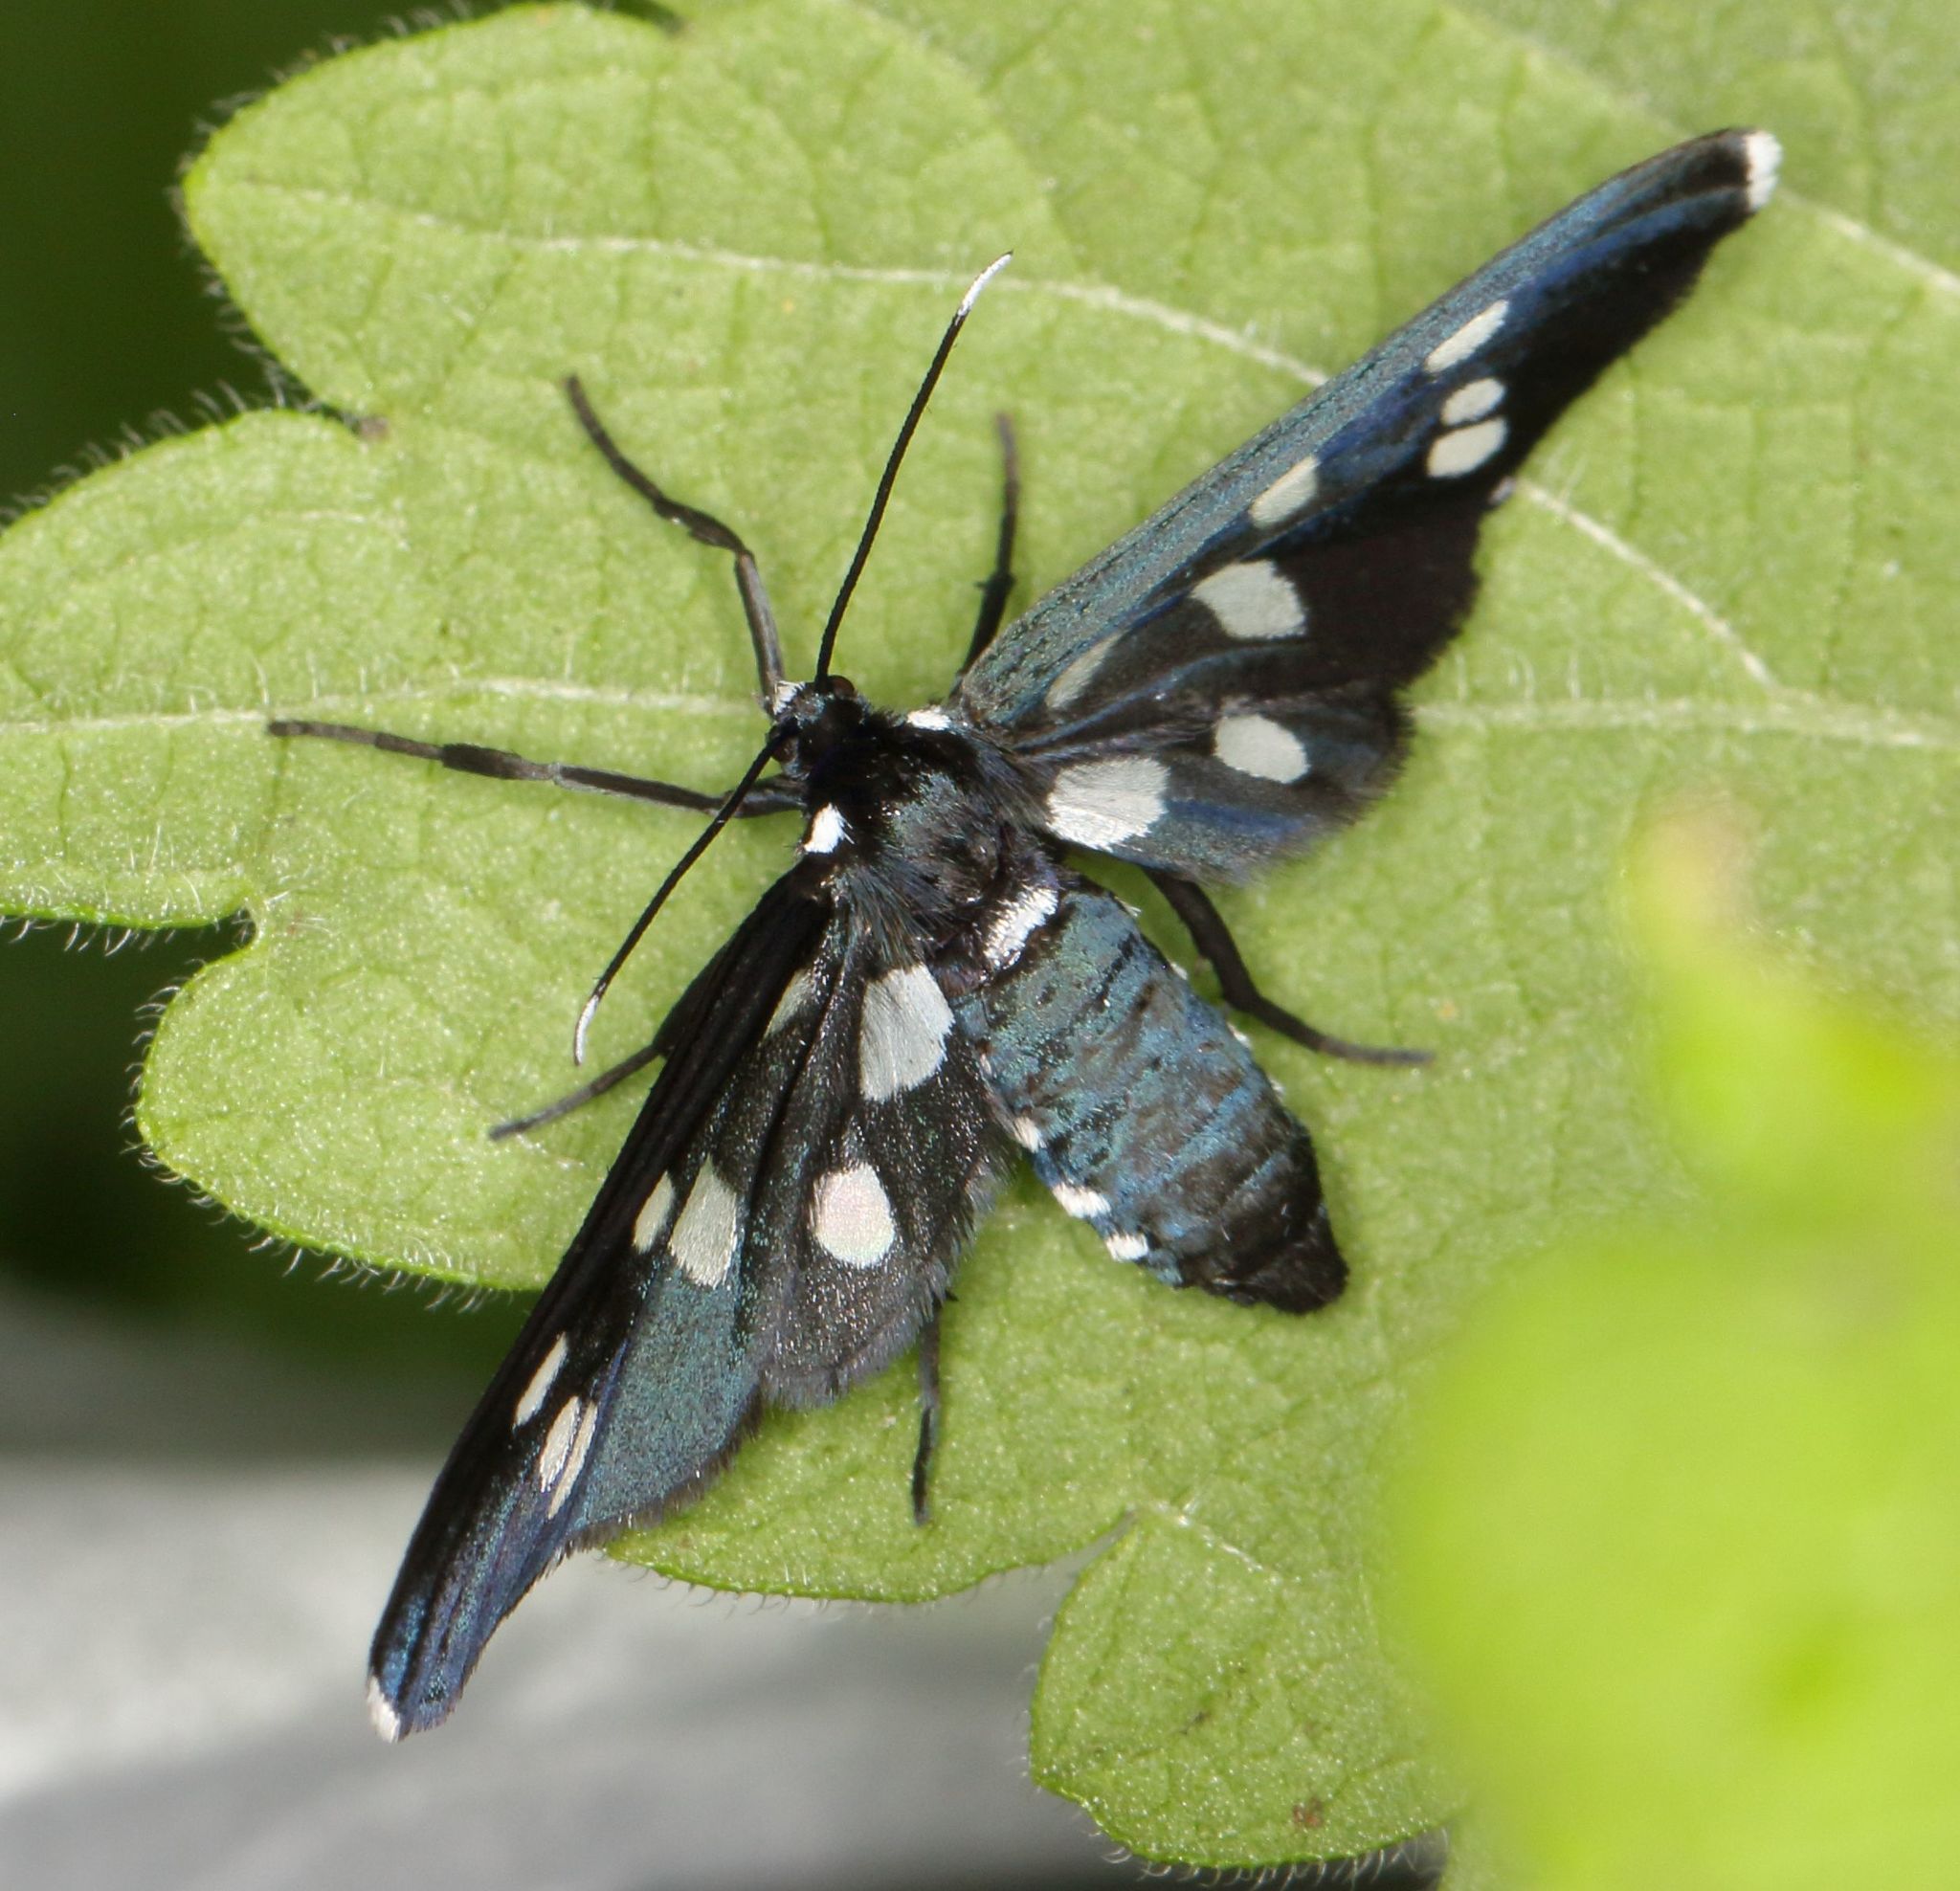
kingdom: Animalia
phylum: Arthropoda
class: Insecta
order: Lepidoptera
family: Erebidae
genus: Ceryx
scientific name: Ceryx longipes
